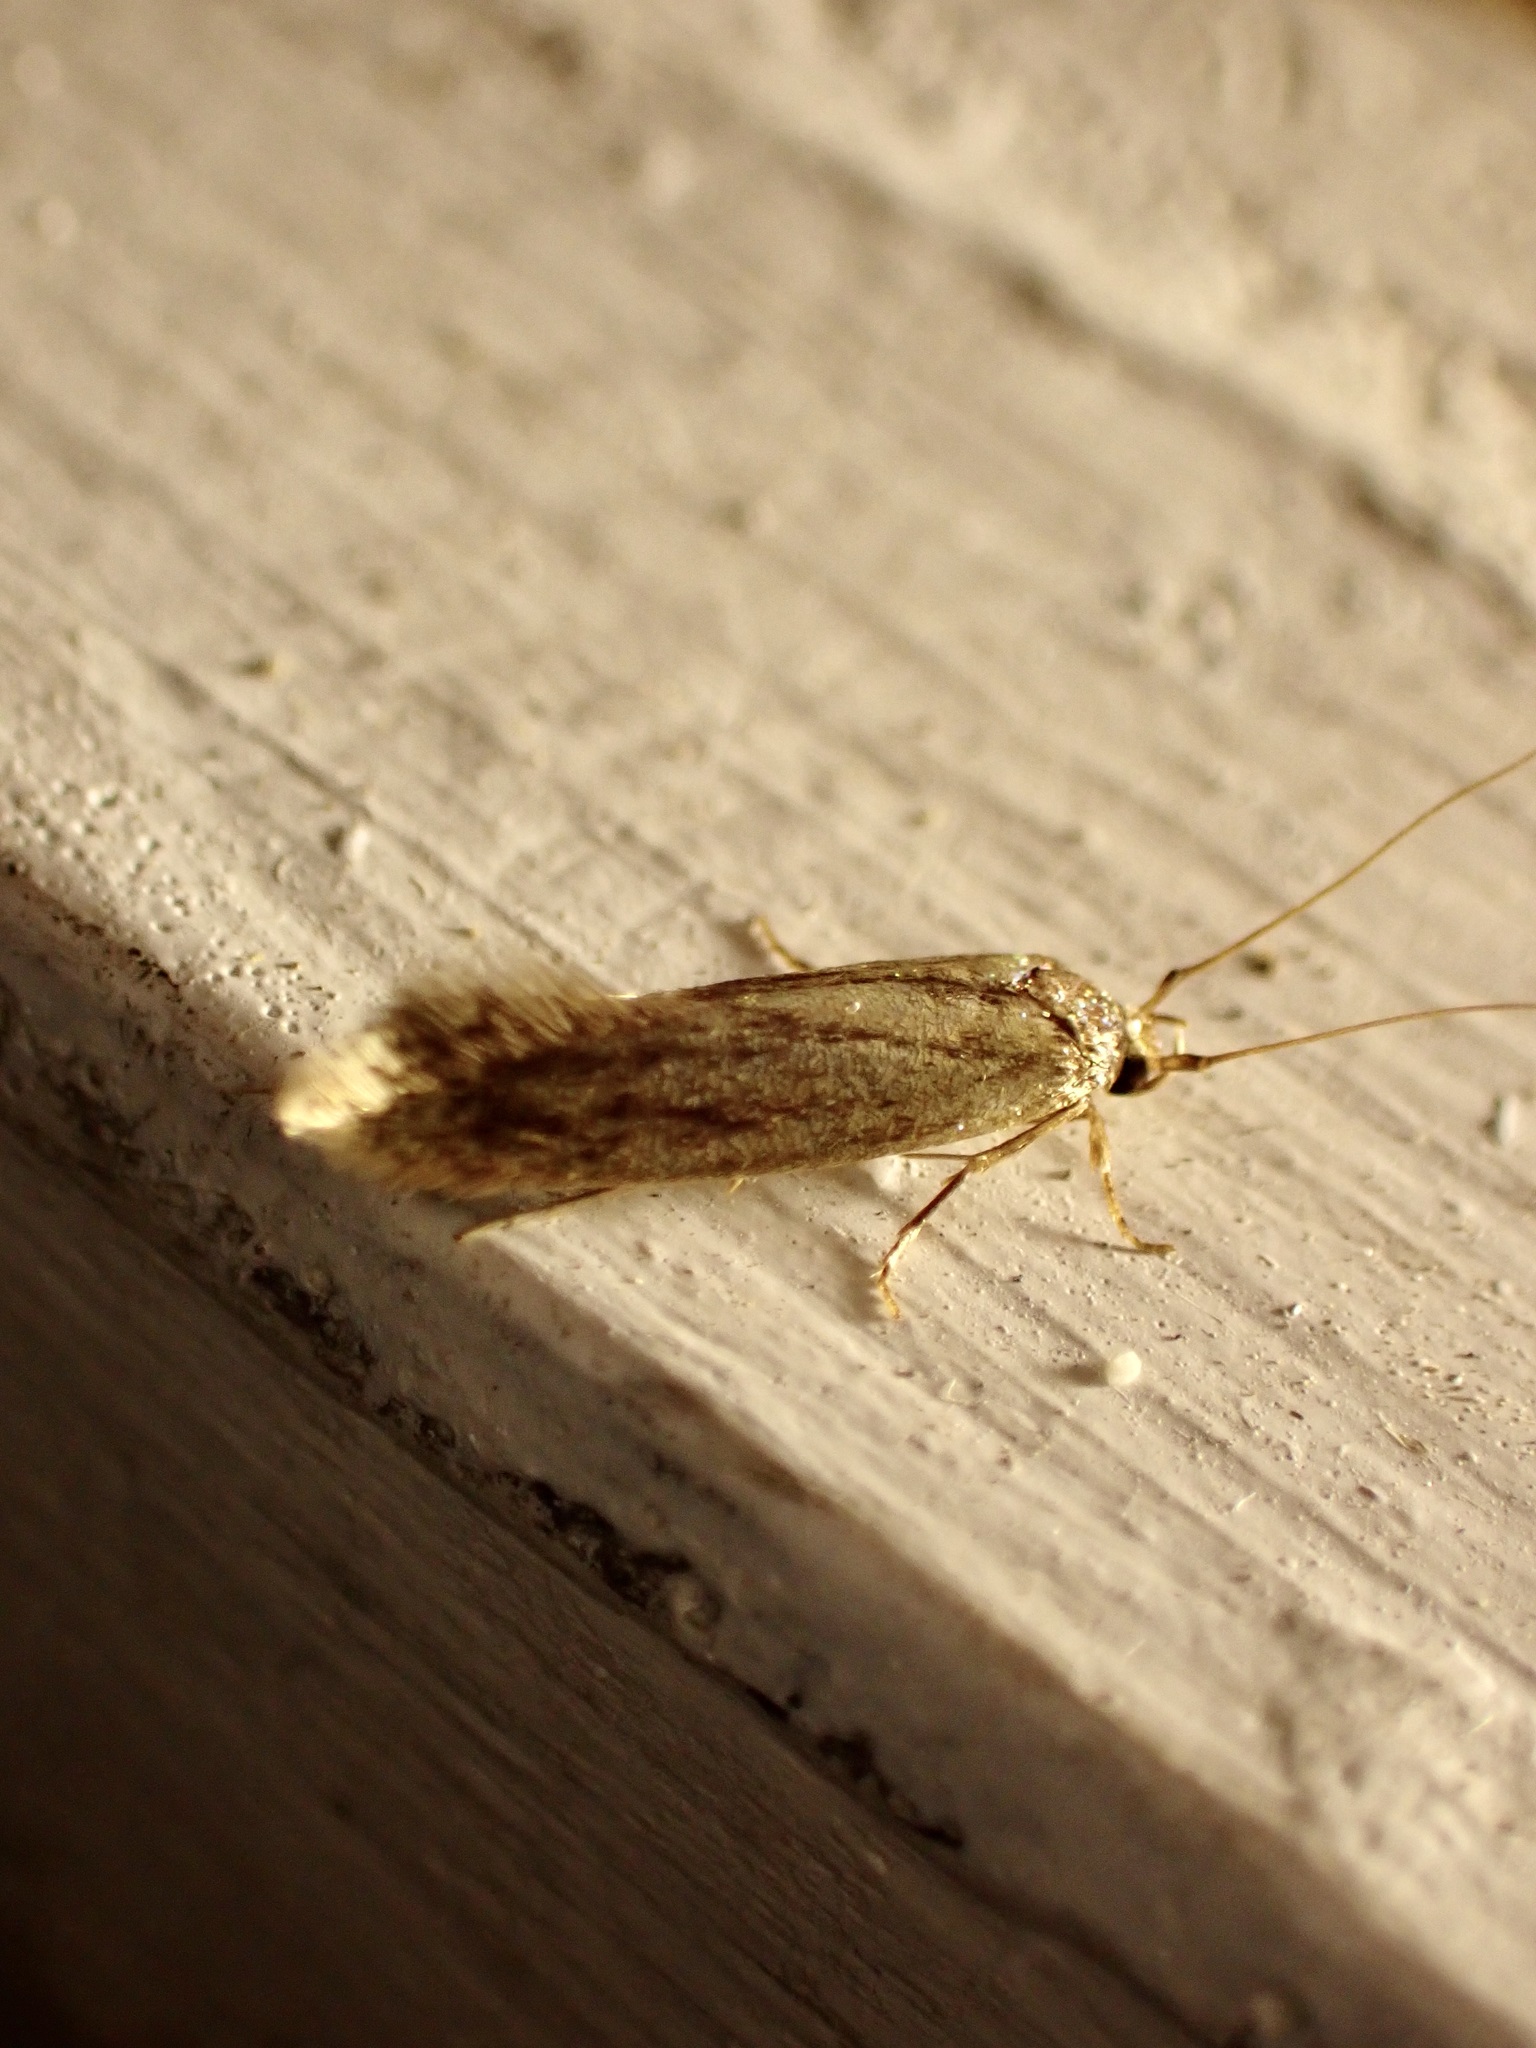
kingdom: Animalia
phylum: Arthropoda
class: Insecta
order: Lepidoptera
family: Tineidae
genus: Opogona
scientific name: Opogona omoscopa
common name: Moth
